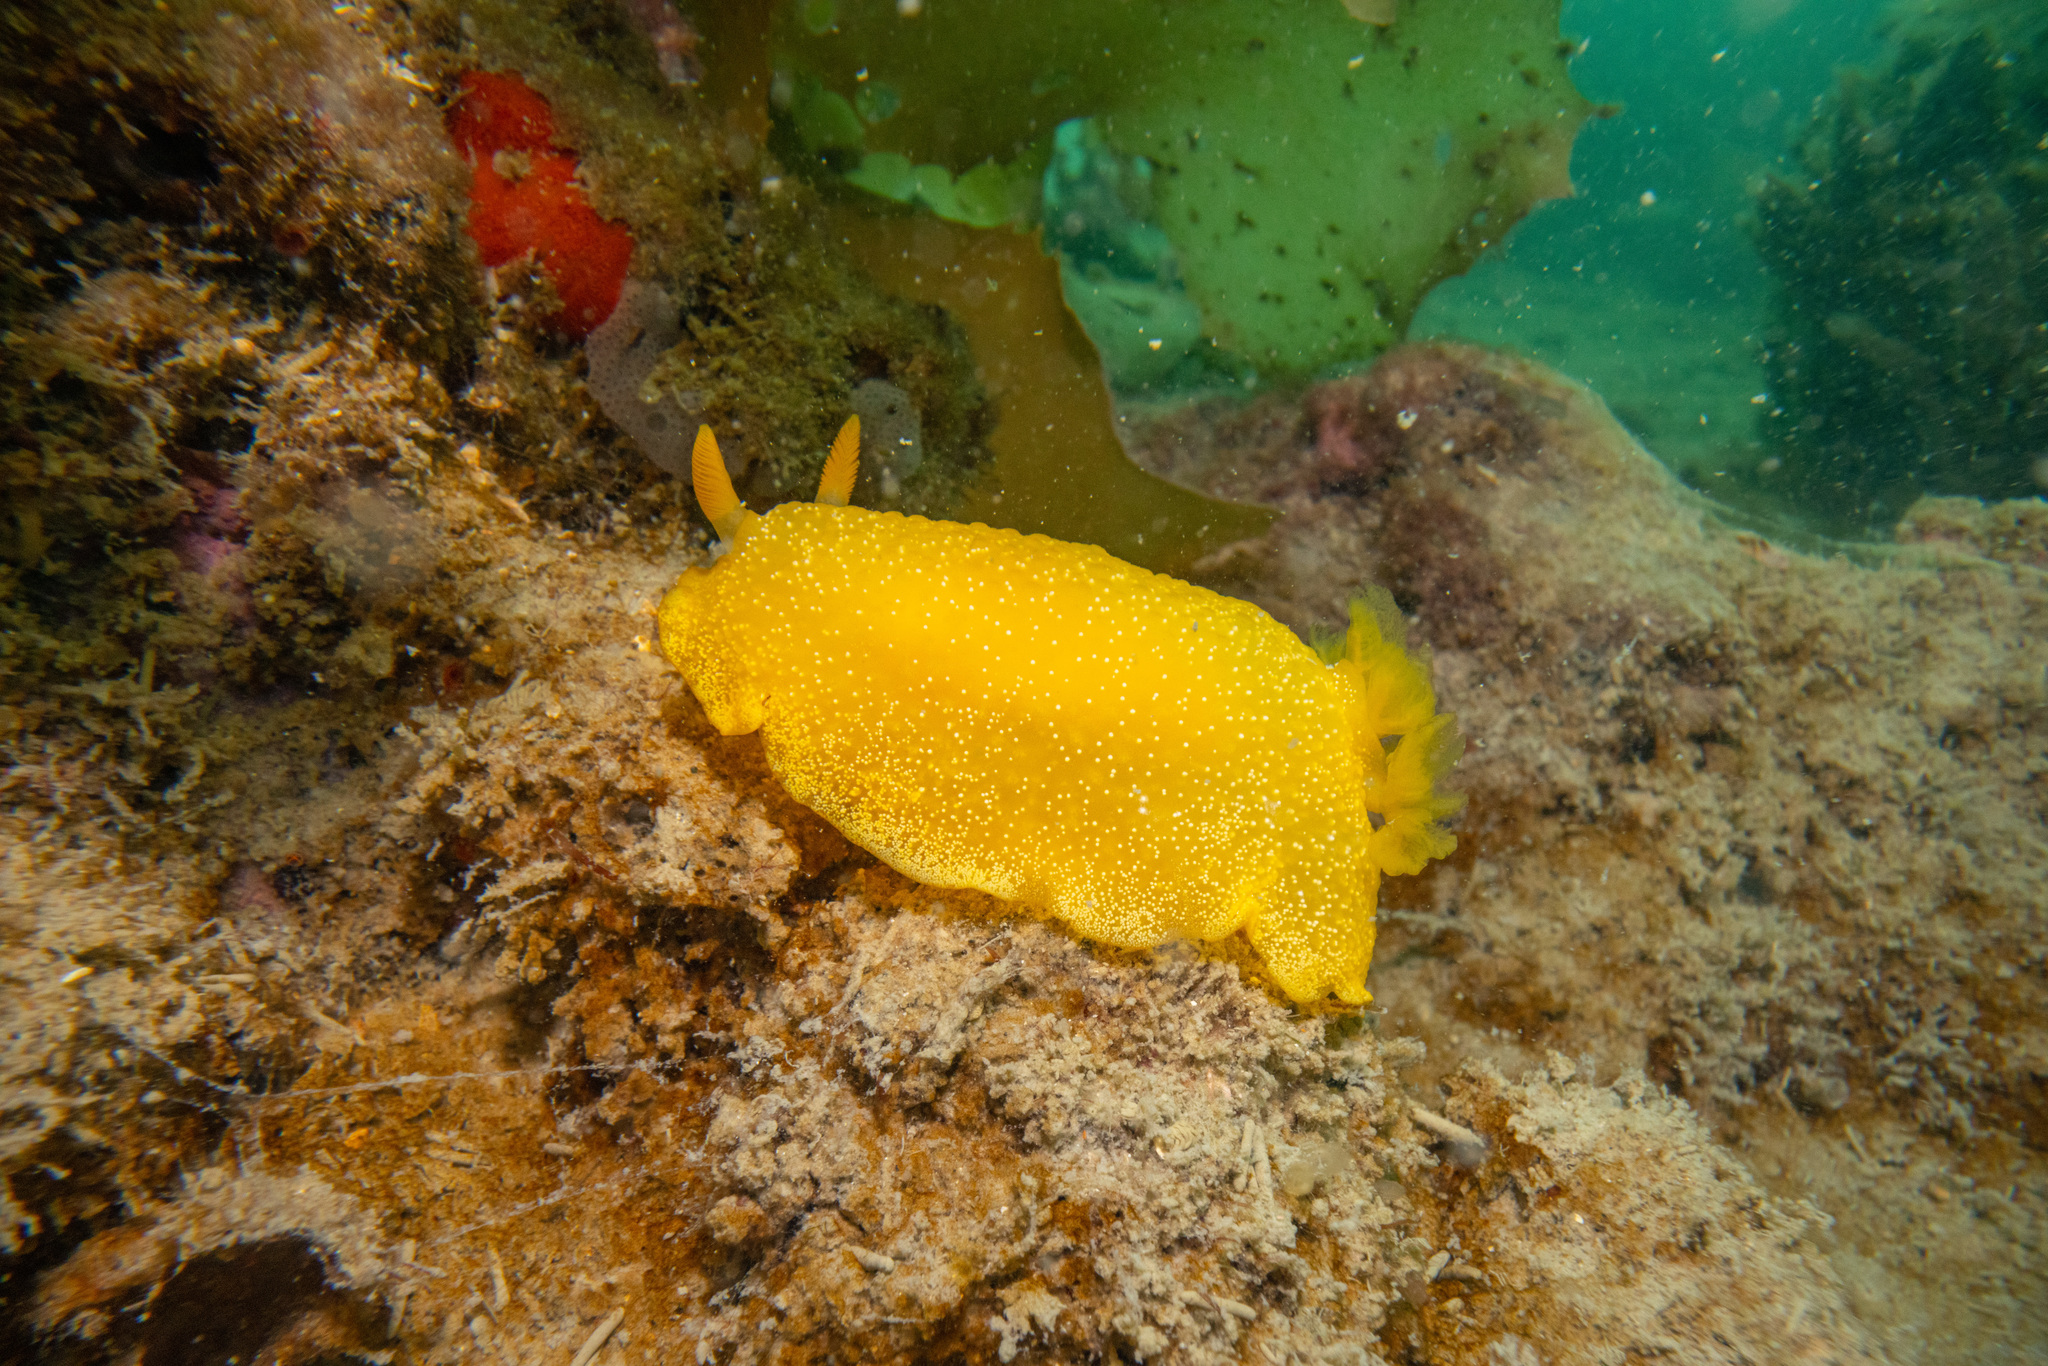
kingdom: Animalia
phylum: Mollusca
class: Gastropoda
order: Nudibranchia
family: Dendrodorididae
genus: Dendrodoris
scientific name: Dendrodoris citrina
